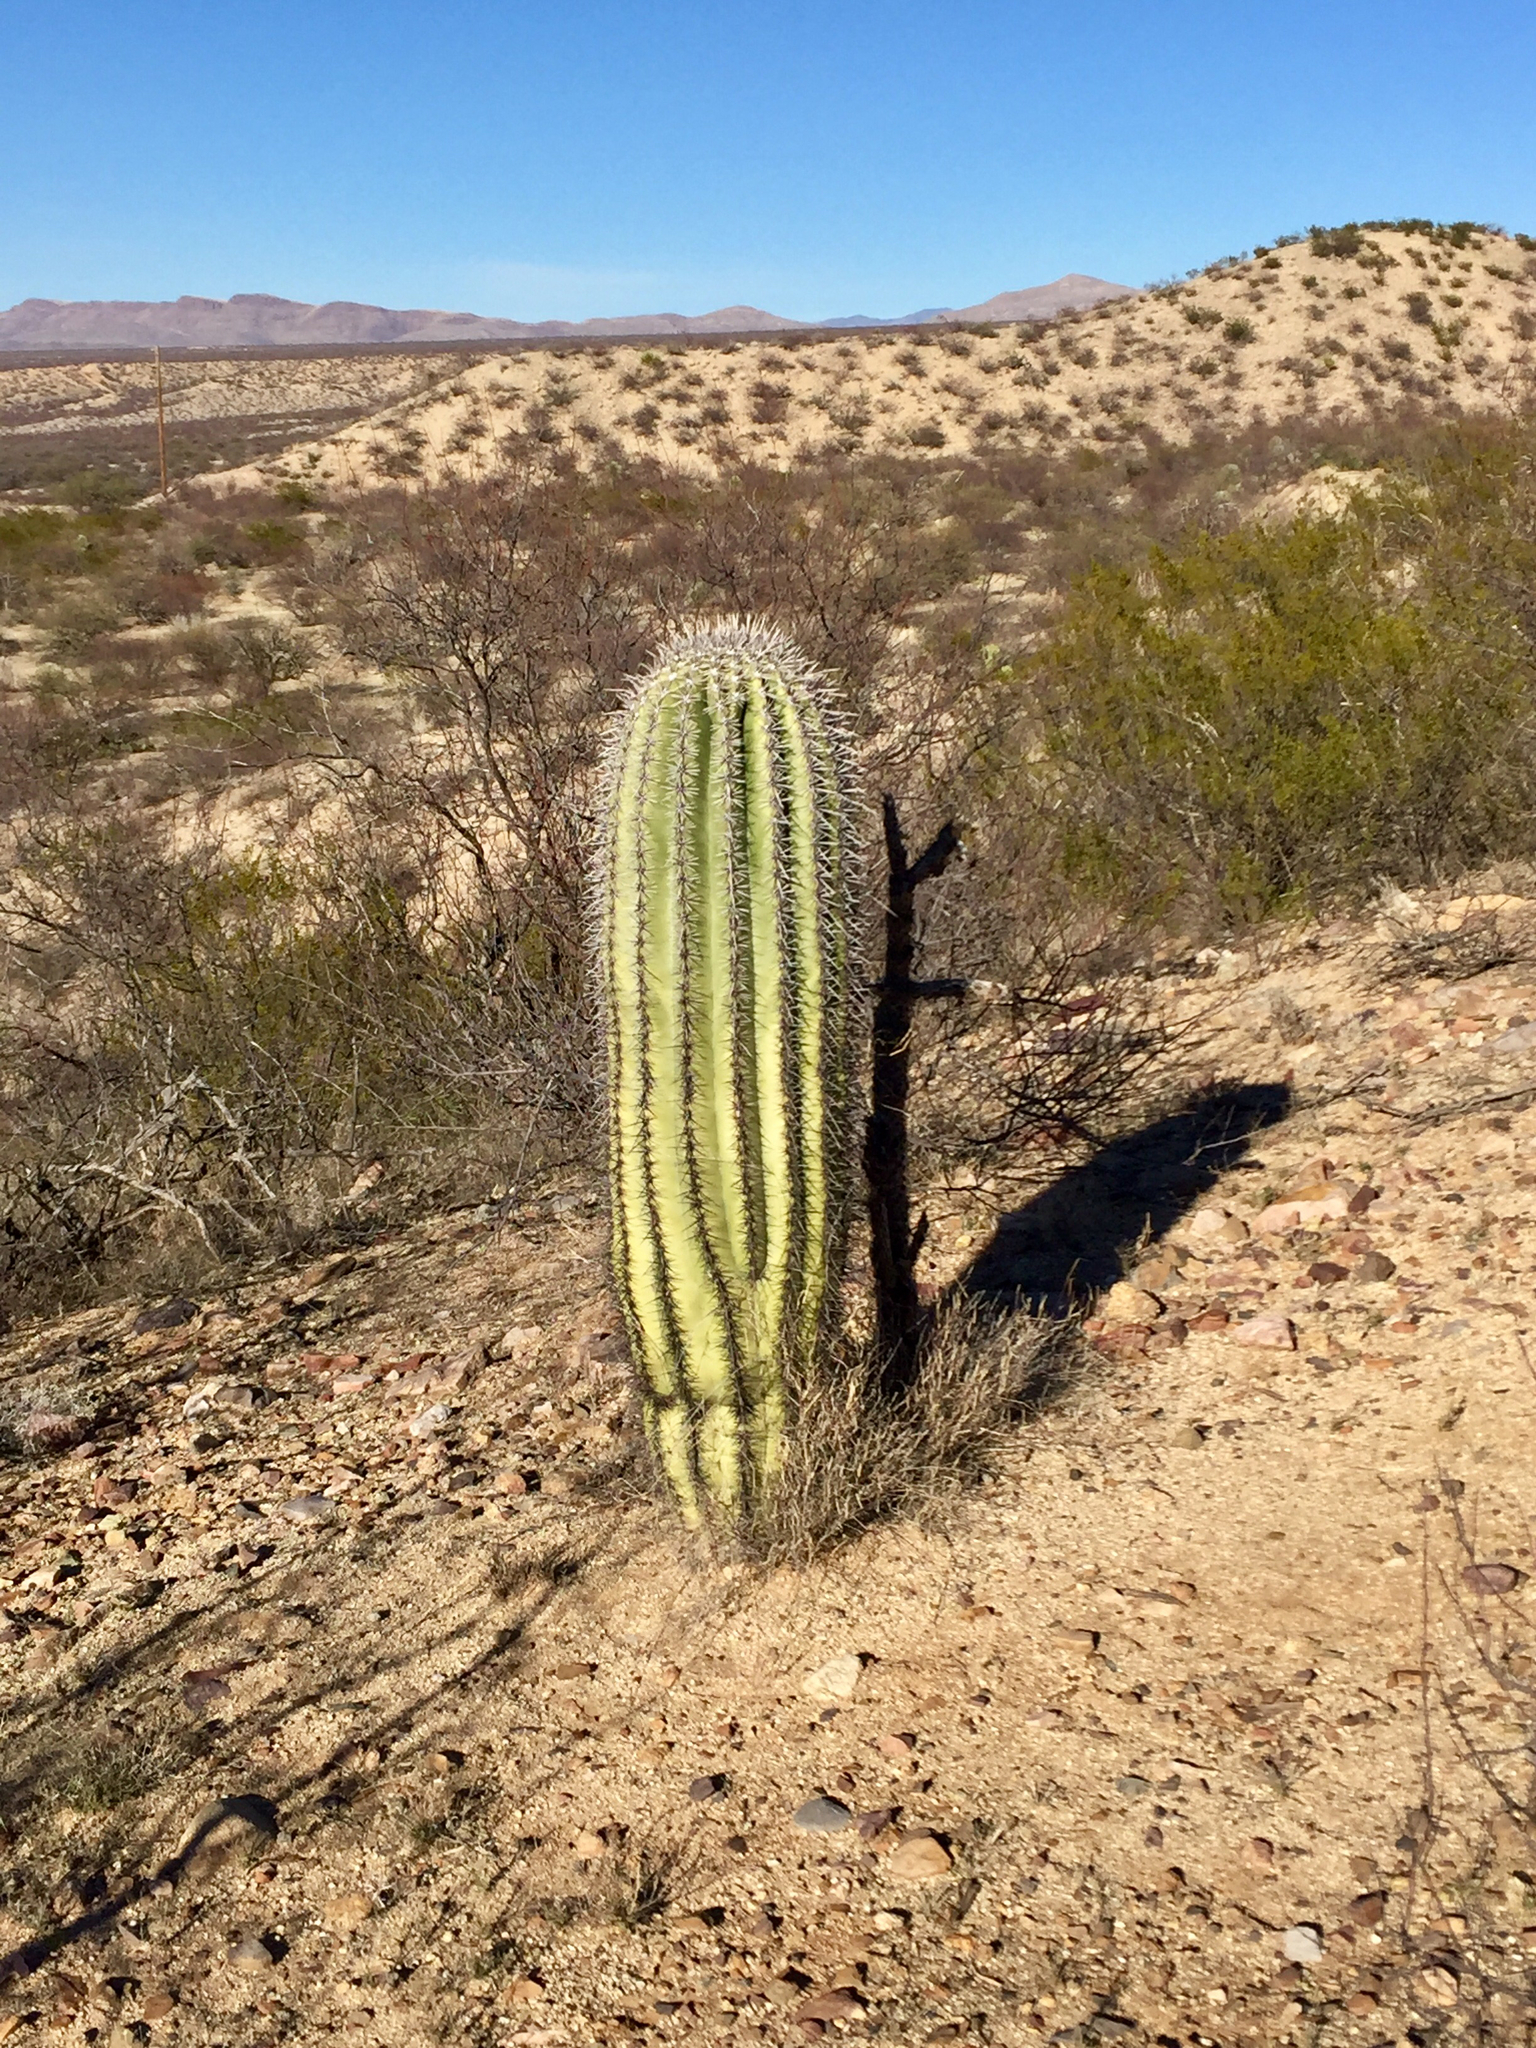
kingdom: Plantae
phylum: Tracheophyta
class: Magnoliopsida
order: Caryophyllales
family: Cactaceae
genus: Carnegiea
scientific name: Carnegiea gigantea
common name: Saguaro
